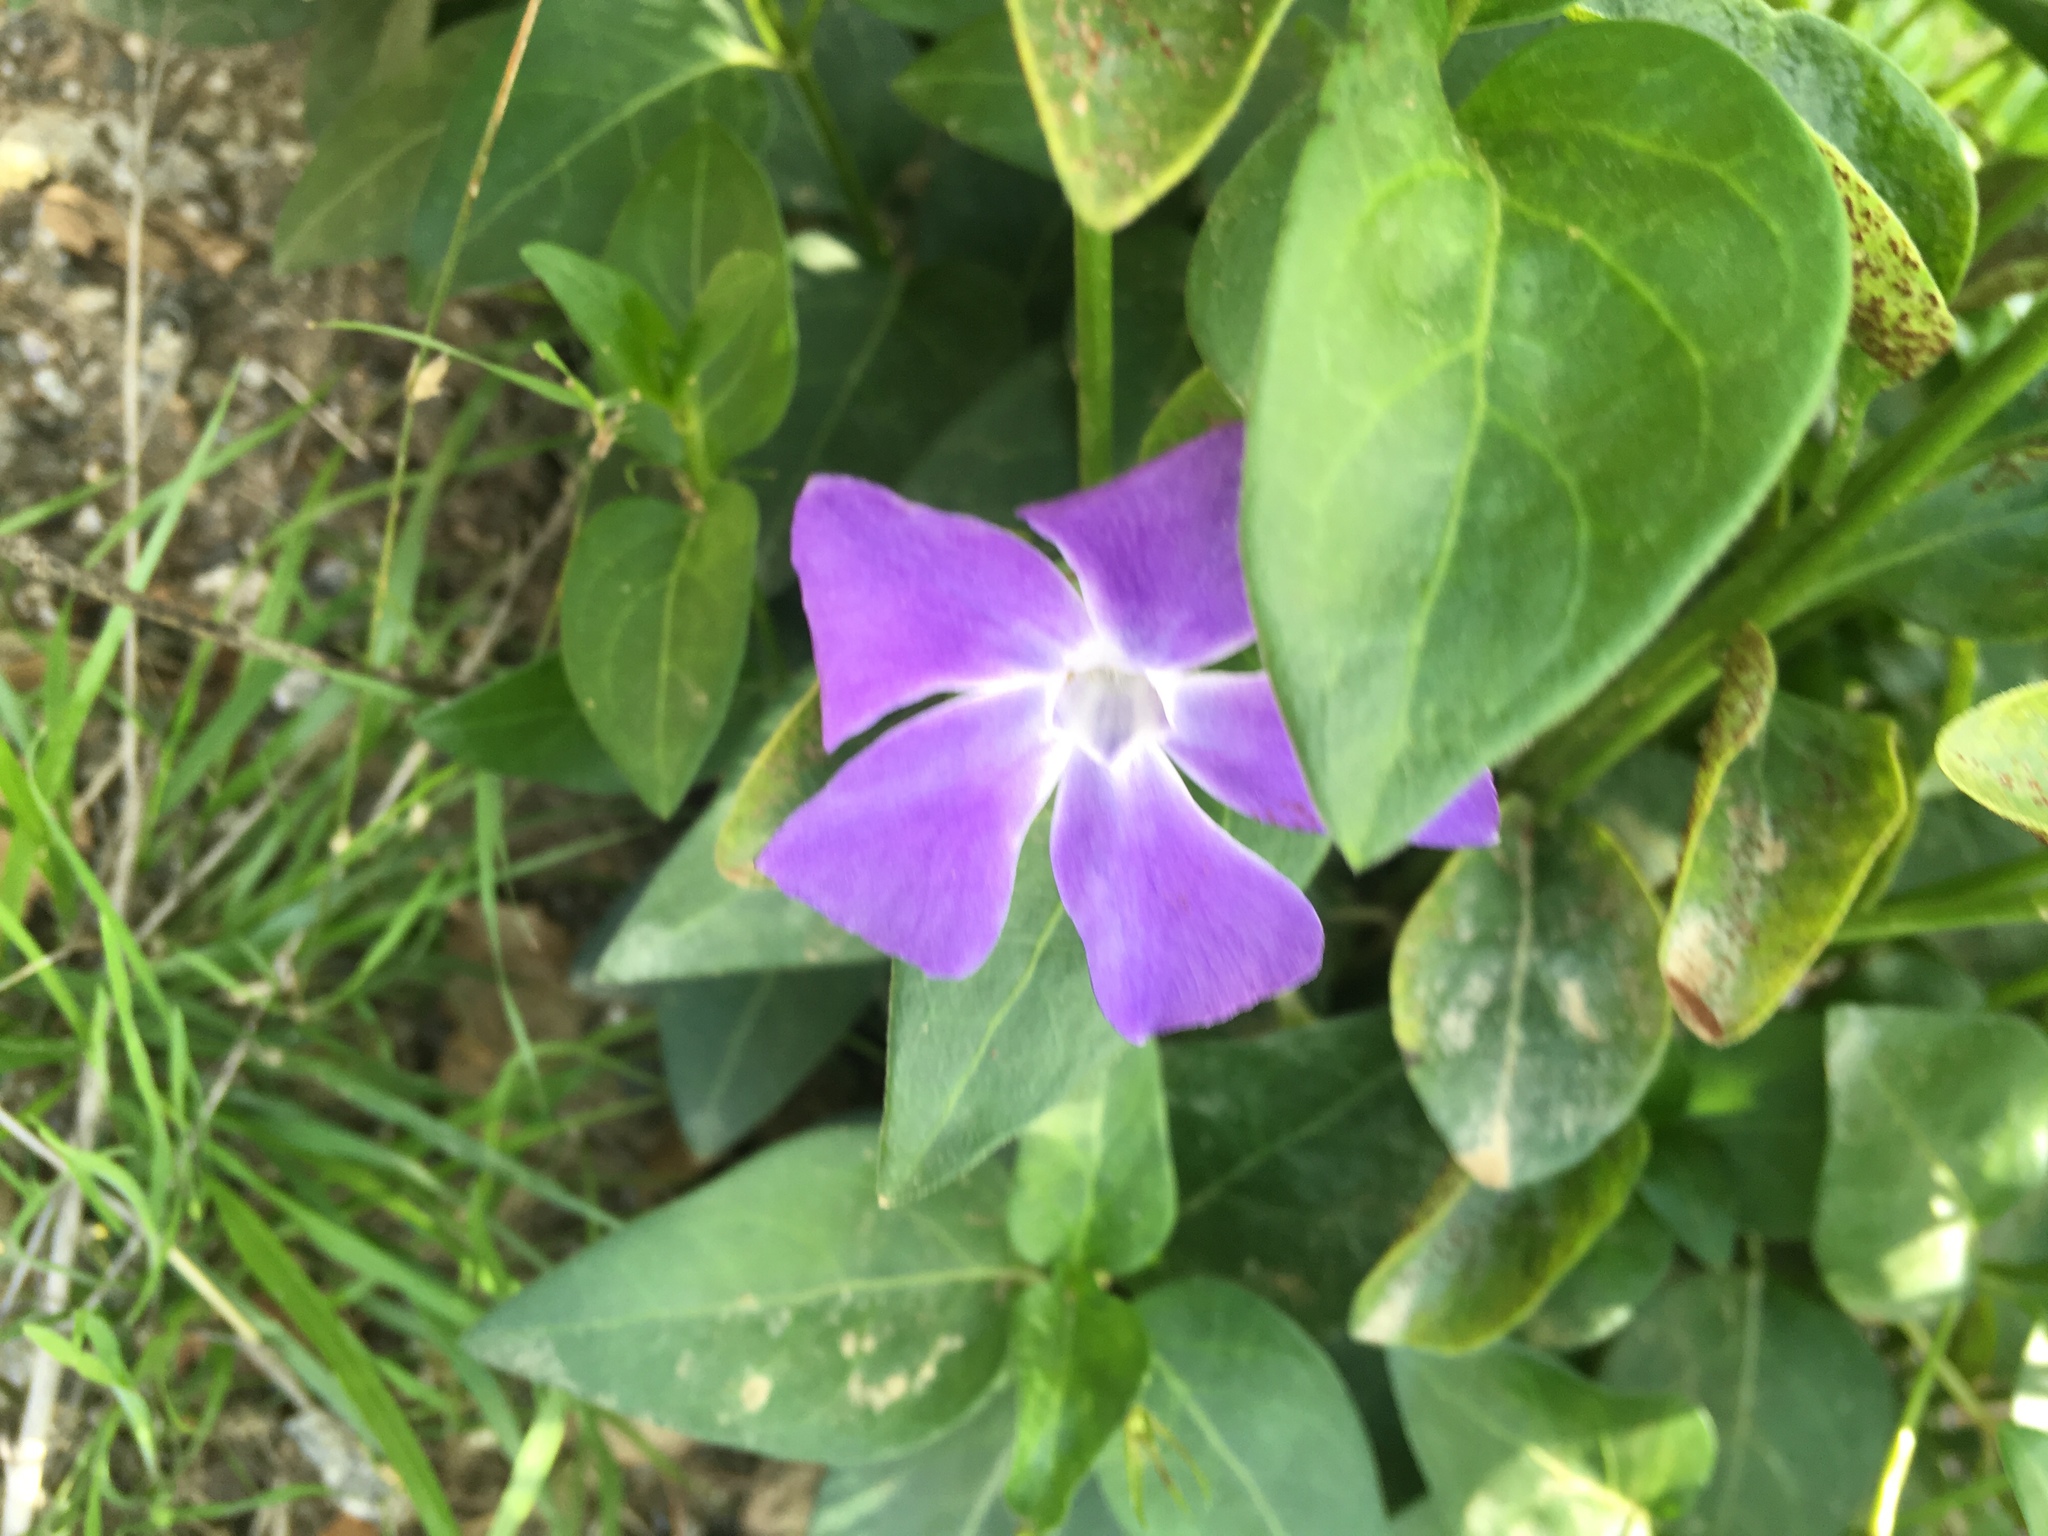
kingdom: Plantae
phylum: Tracheophyta
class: Magnoliopsida
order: Gentianales
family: Apocynaceae
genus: Vinca
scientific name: Vinca major
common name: Greater periwinkle
